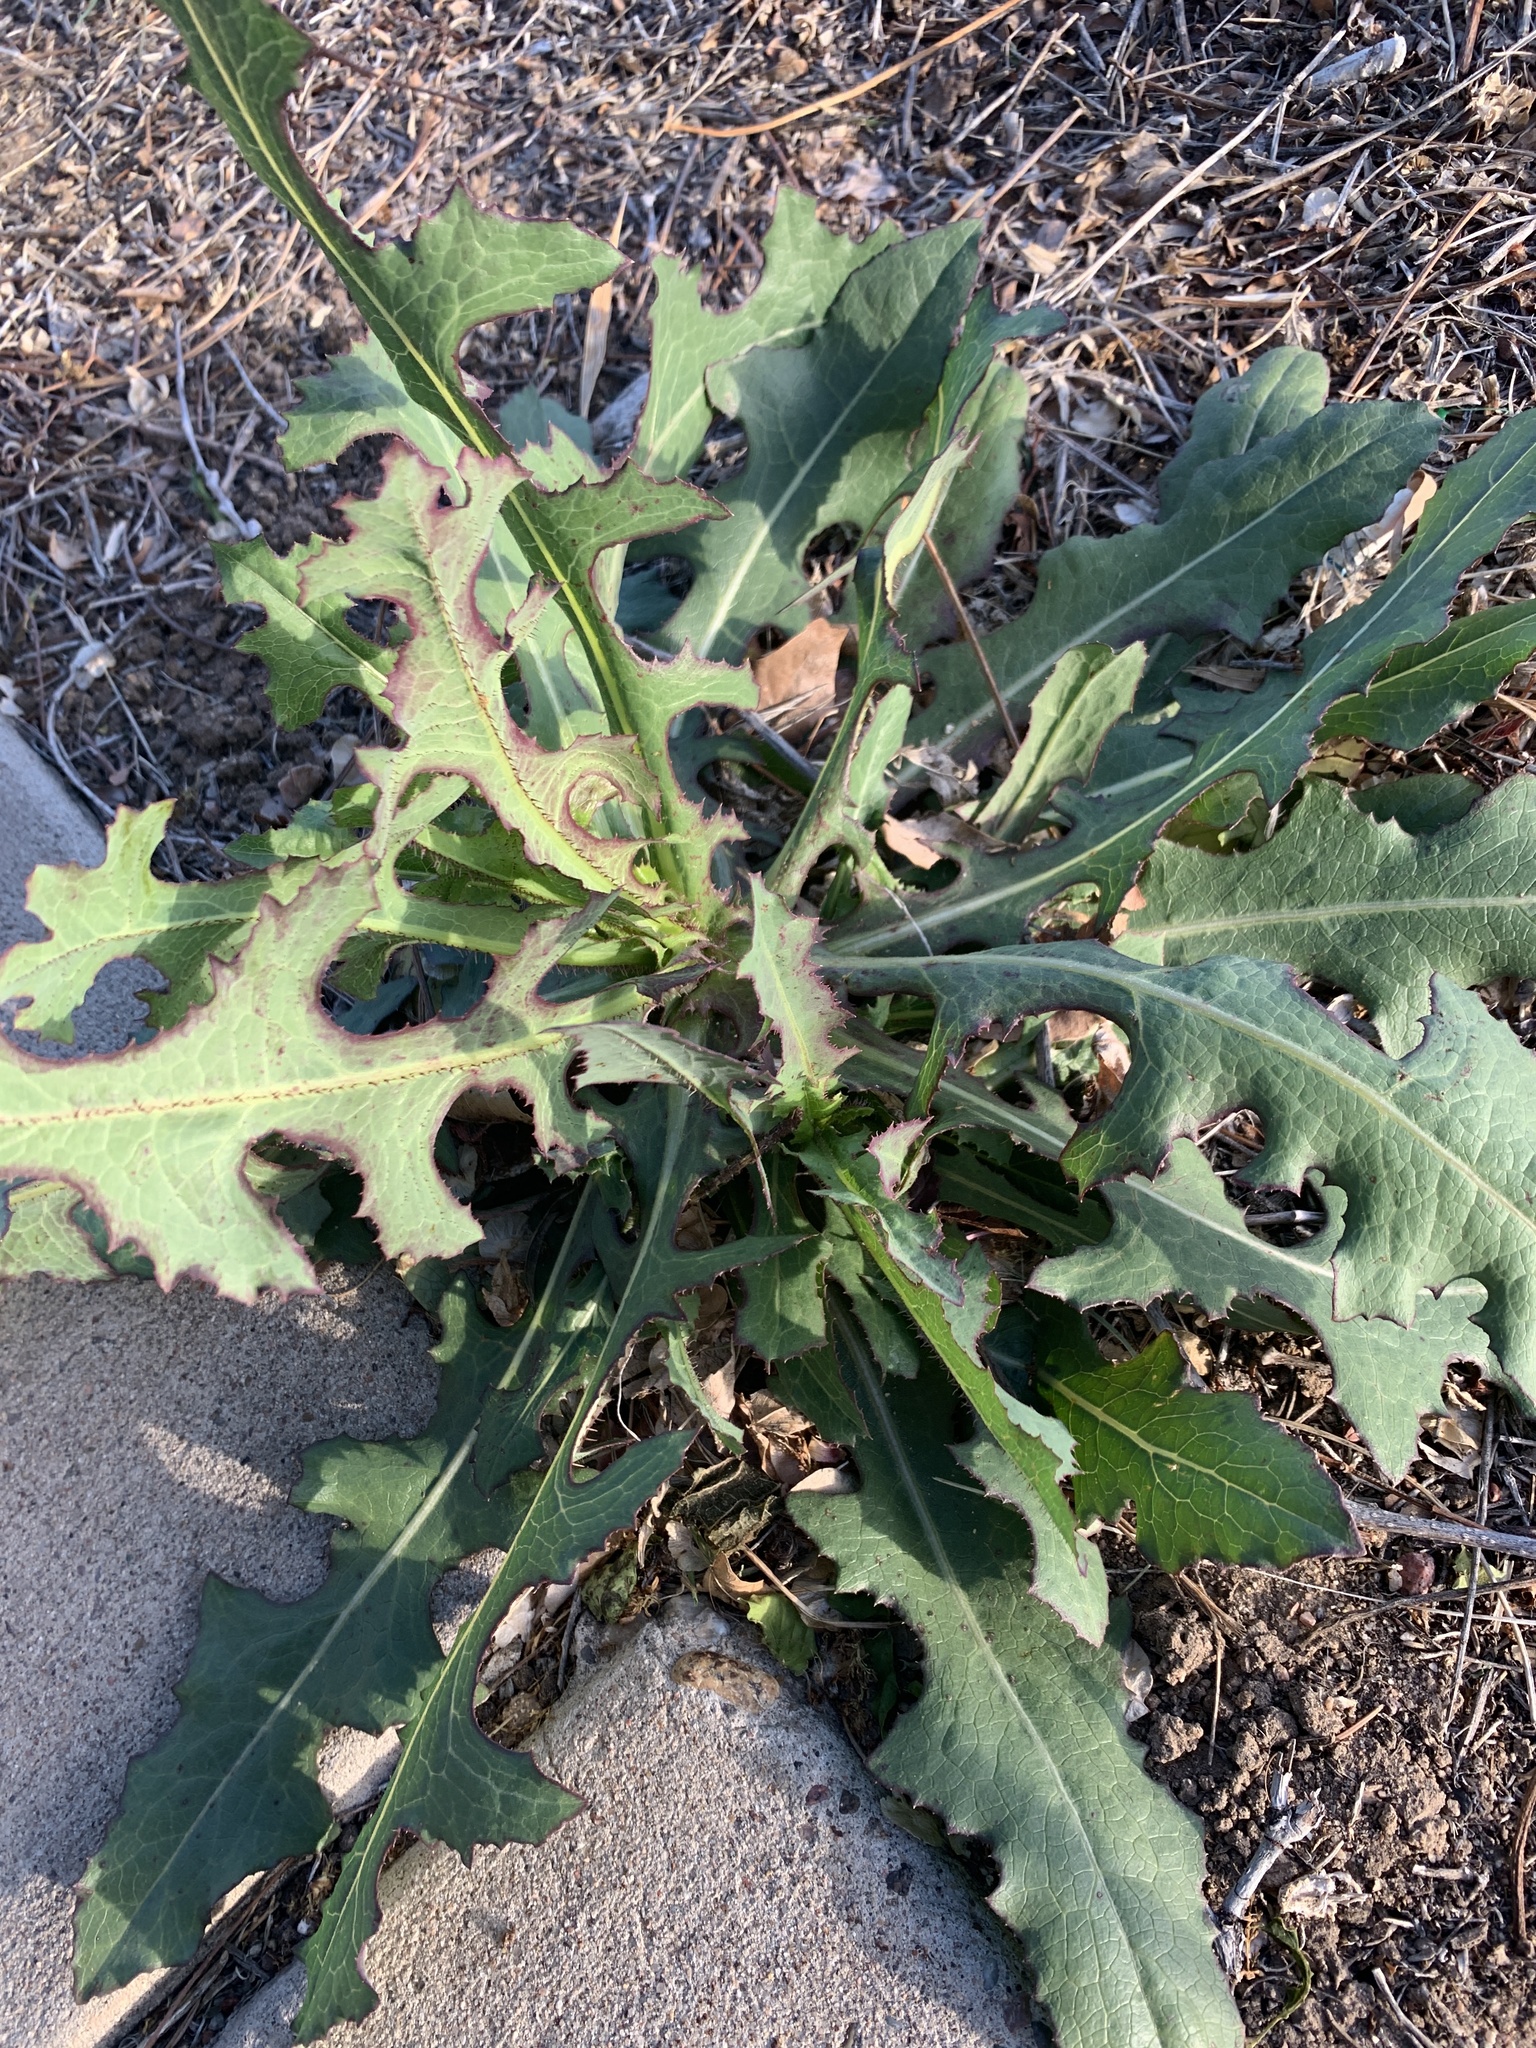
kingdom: Plantae
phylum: Tracheophyta
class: Magnoliopsida
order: Asterales
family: Asteraceae
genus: Lactuca
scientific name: Lactuca serriola
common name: Prickly lettuce
